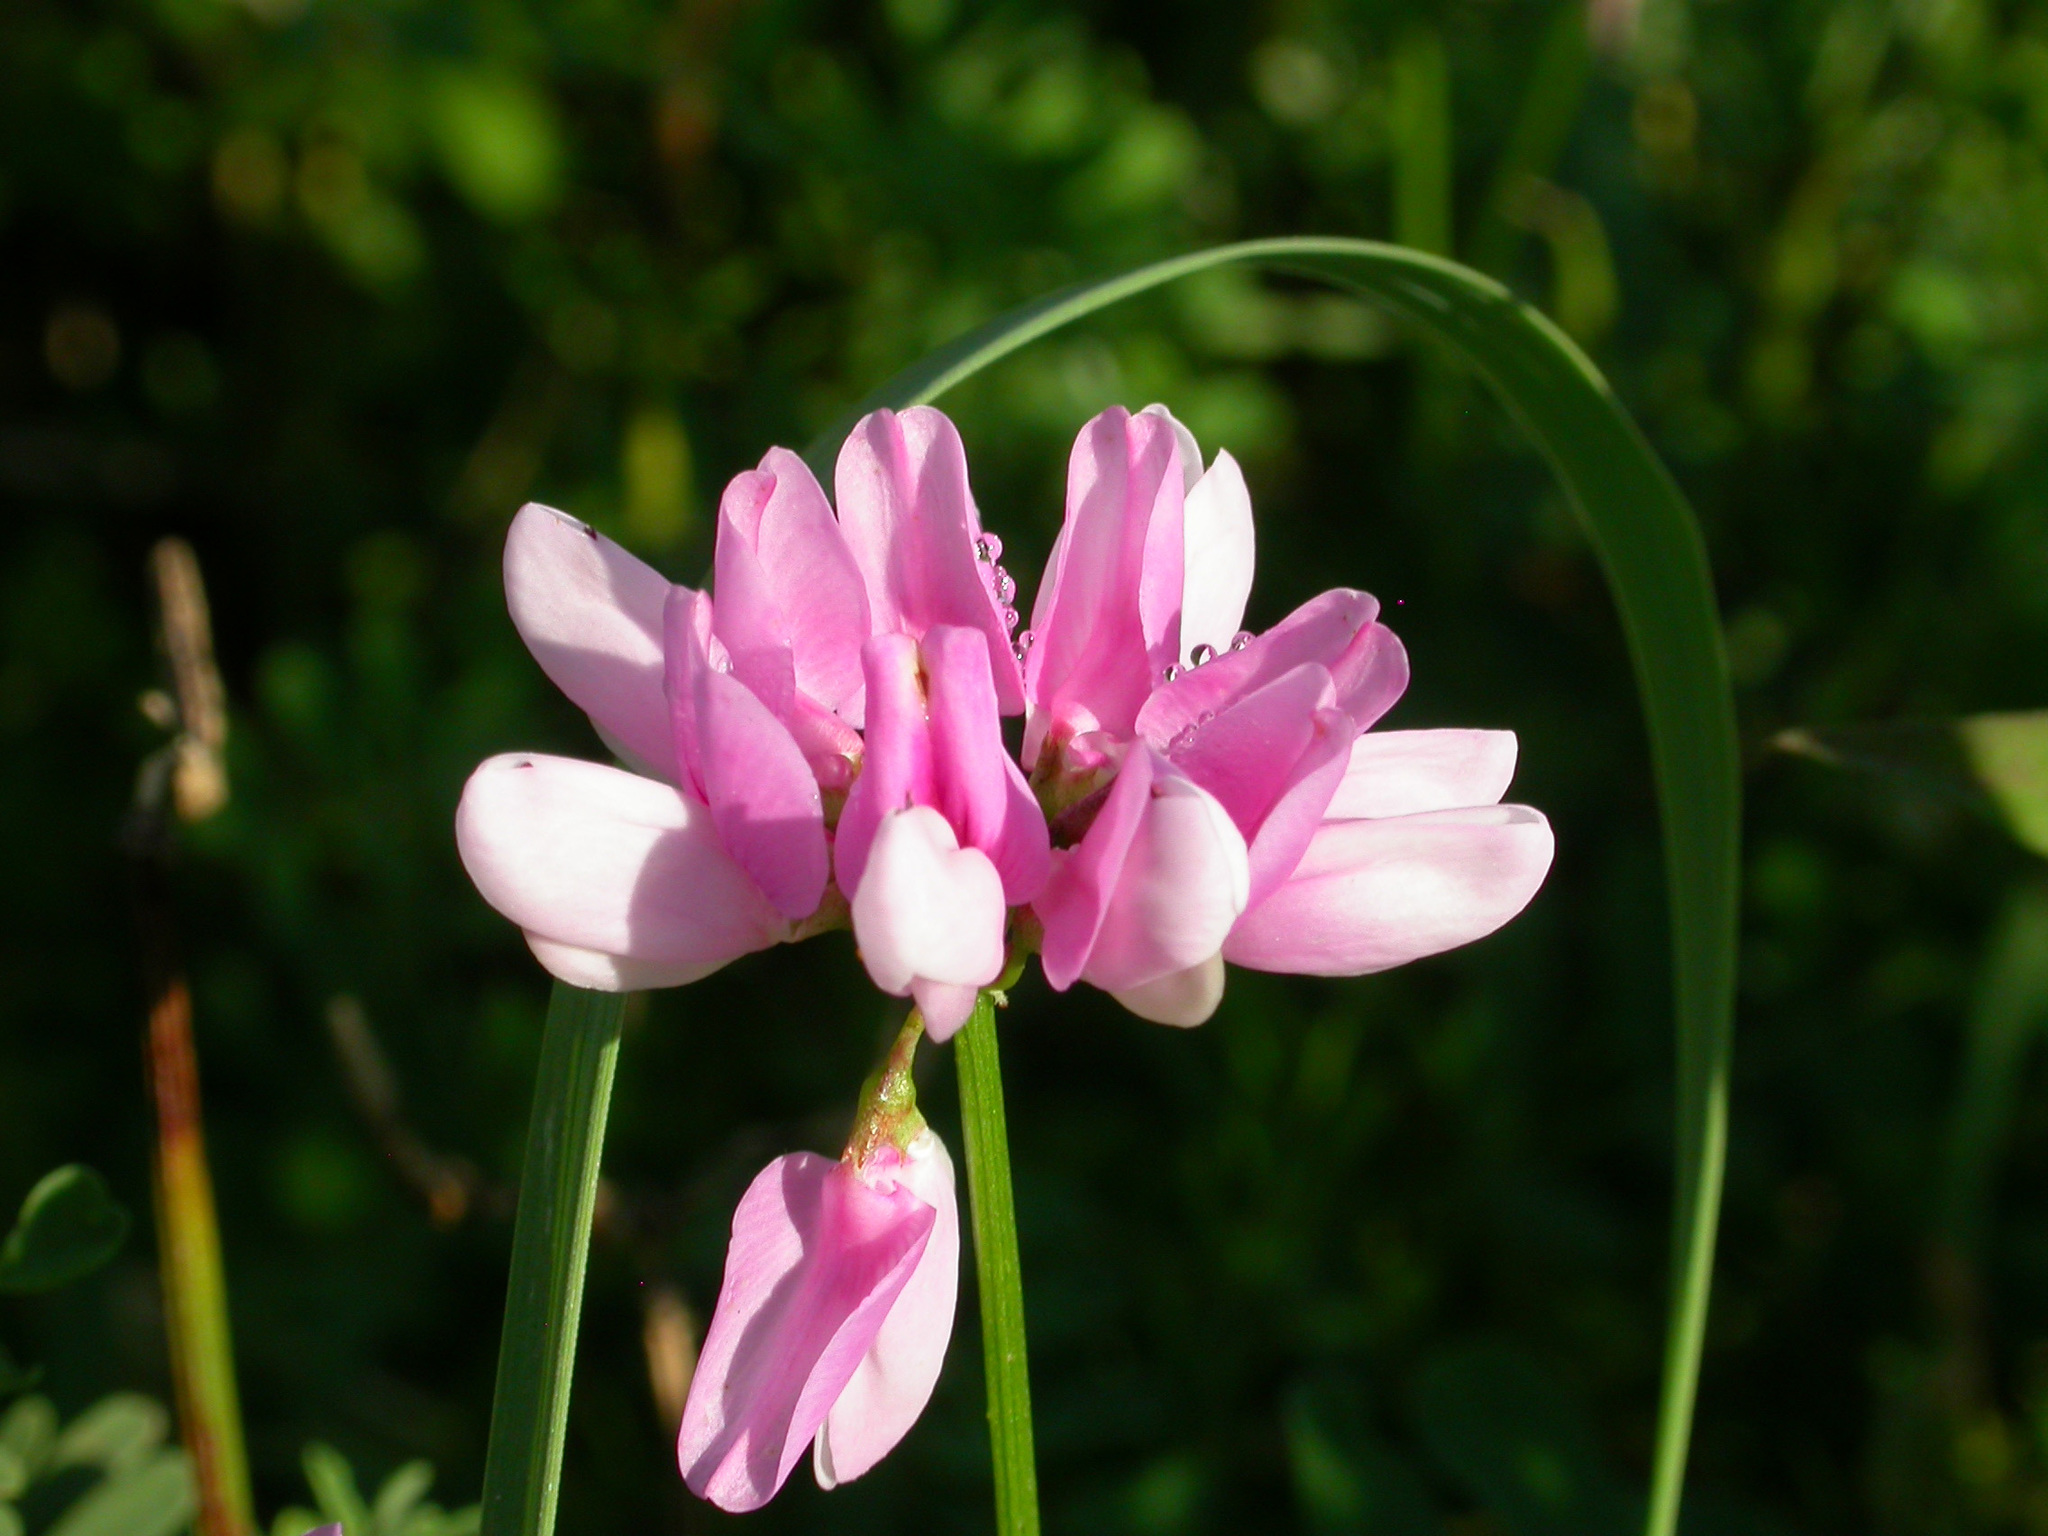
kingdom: Plantae
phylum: Tracheophyta
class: Magnoliopsida
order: Fabales
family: Fabaceae
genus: Coronilla
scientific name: Coronilla varia
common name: Crownvetch
